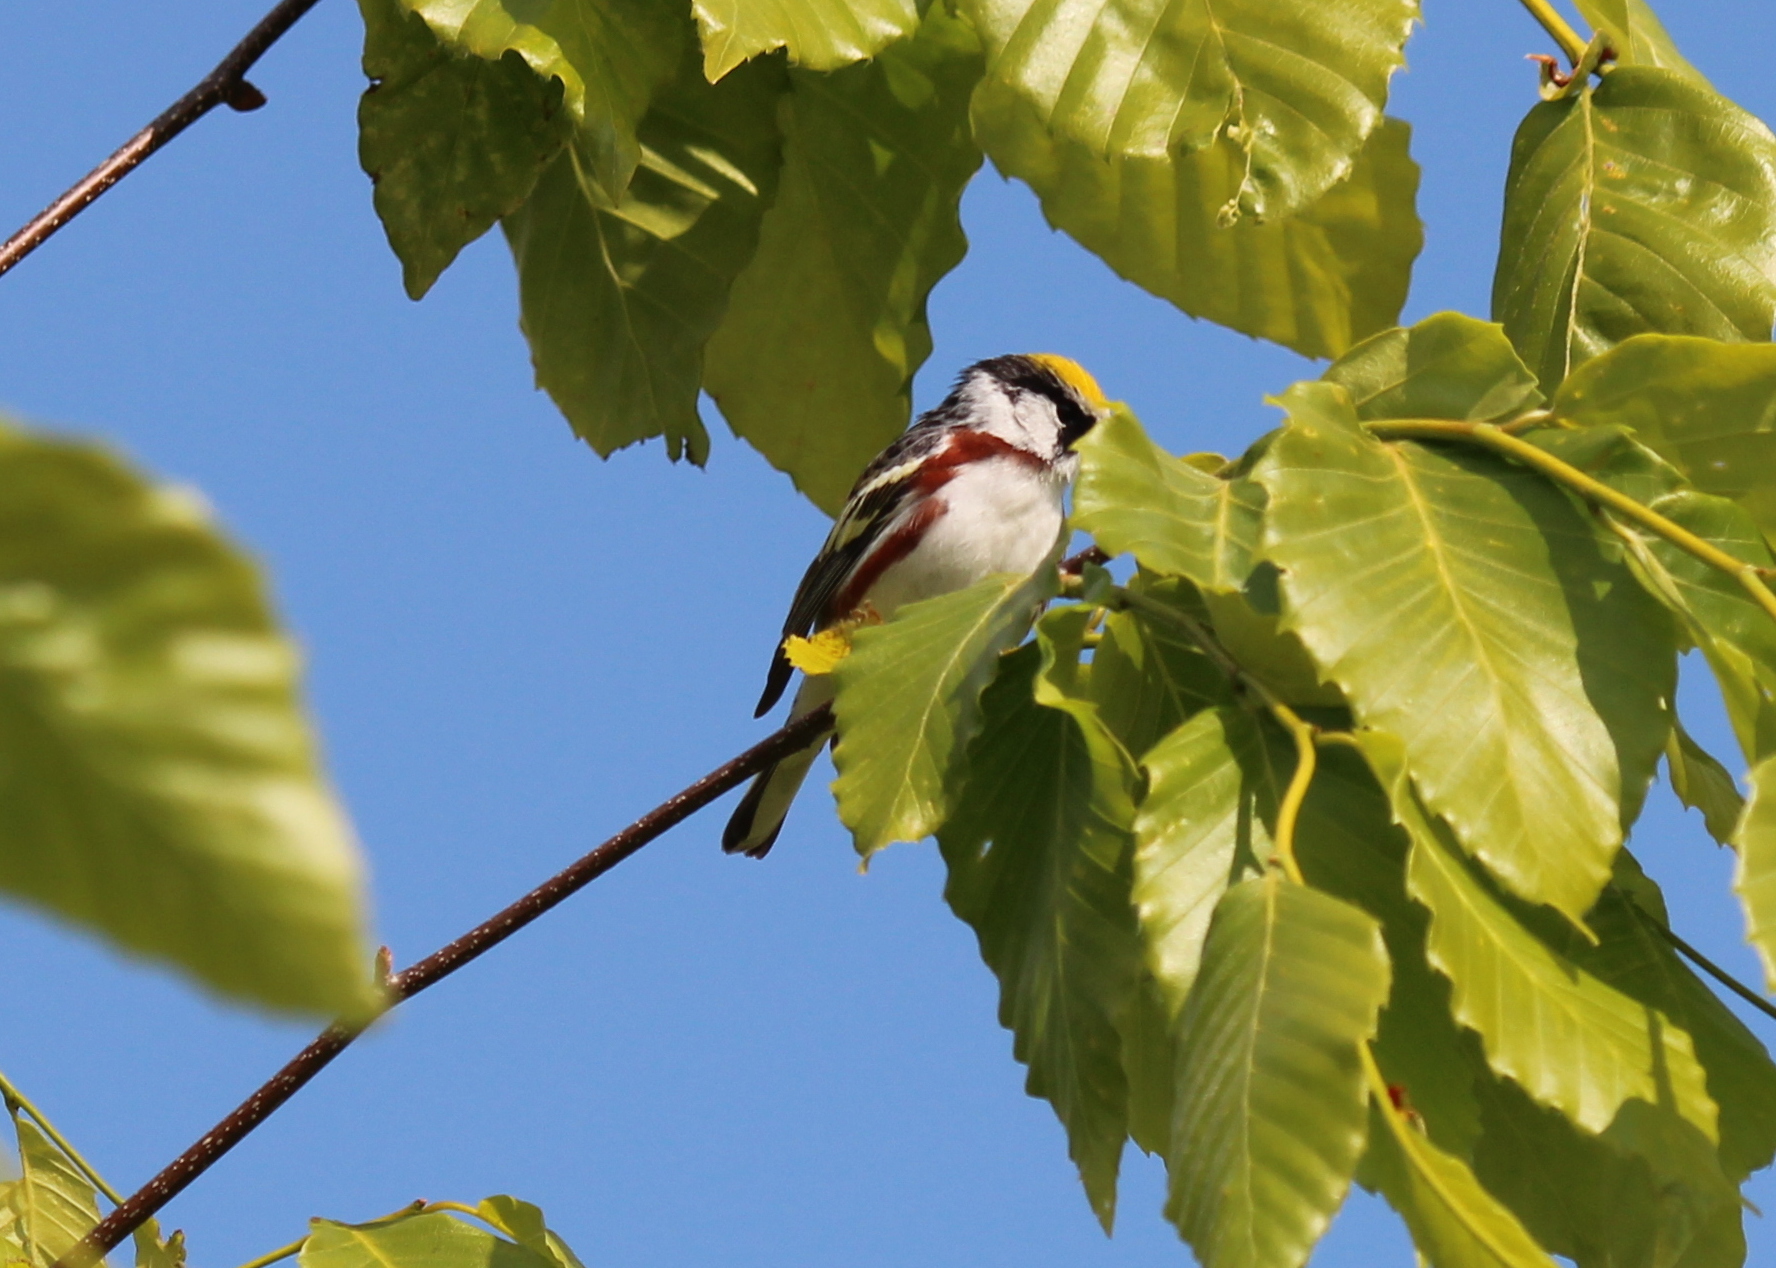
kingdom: Animalia
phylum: Chordata
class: Aves
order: Passeriformes
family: Parulidae
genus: Setophaga
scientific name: Setophaga pensylvanica
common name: Chestnut-sided warbler
